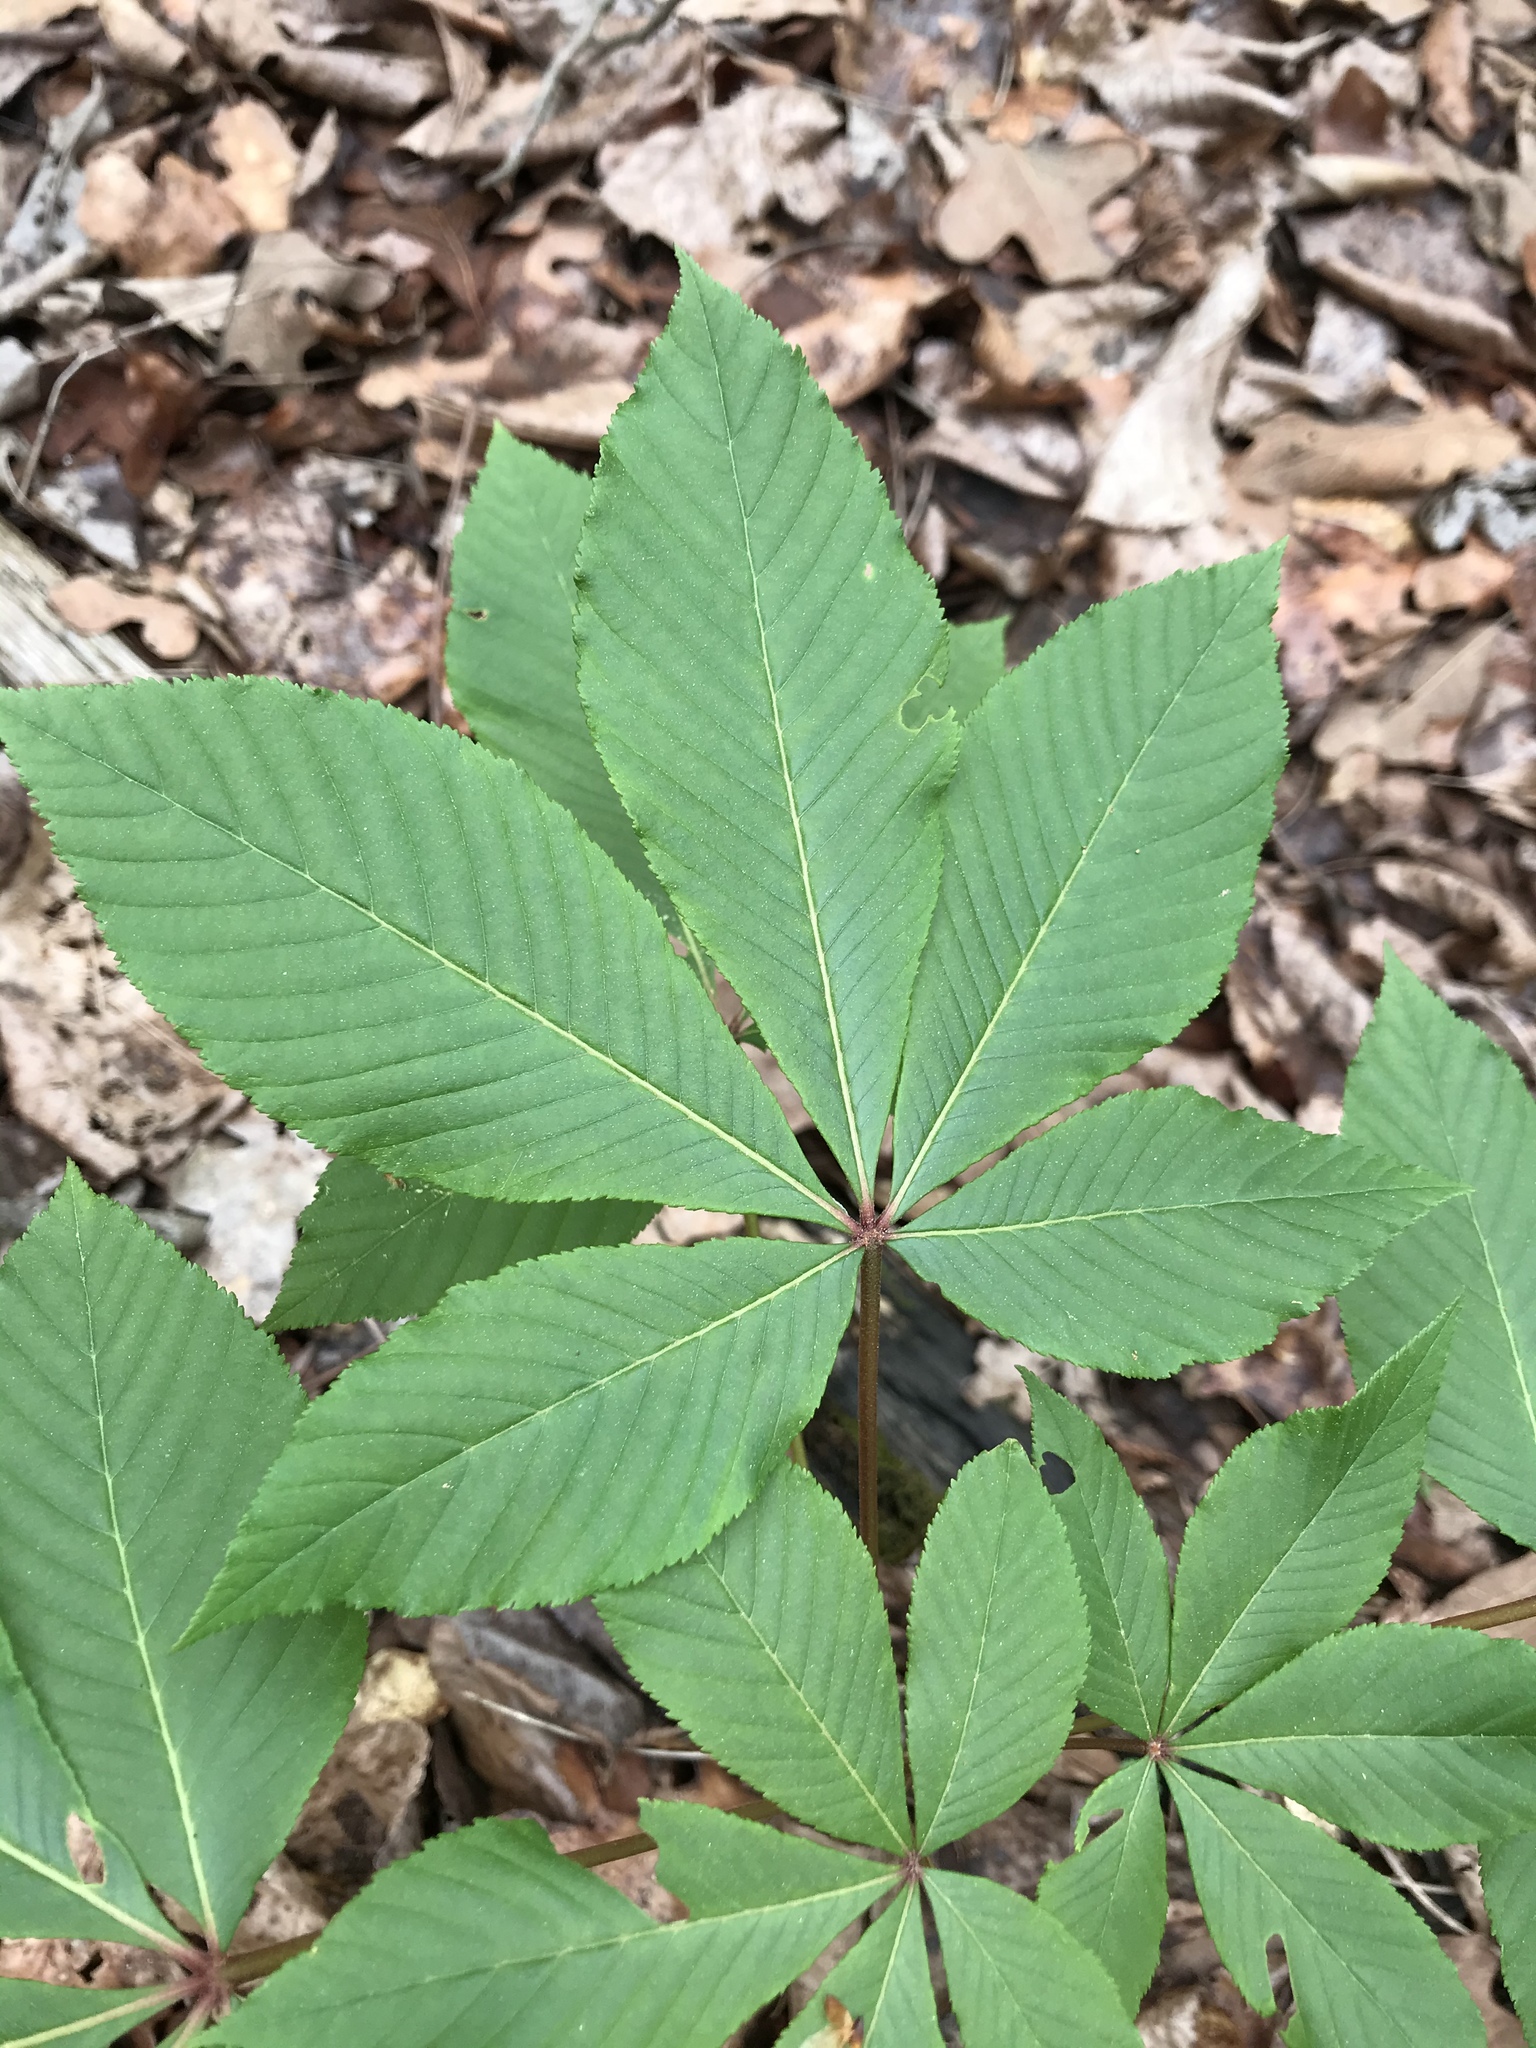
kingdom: Plantae
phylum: Tracheophyta
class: Magnoliopsida
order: Sapindales
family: Sapindaceae
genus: Aesculus
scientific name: Aesculus pavia
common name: Red buckeye
